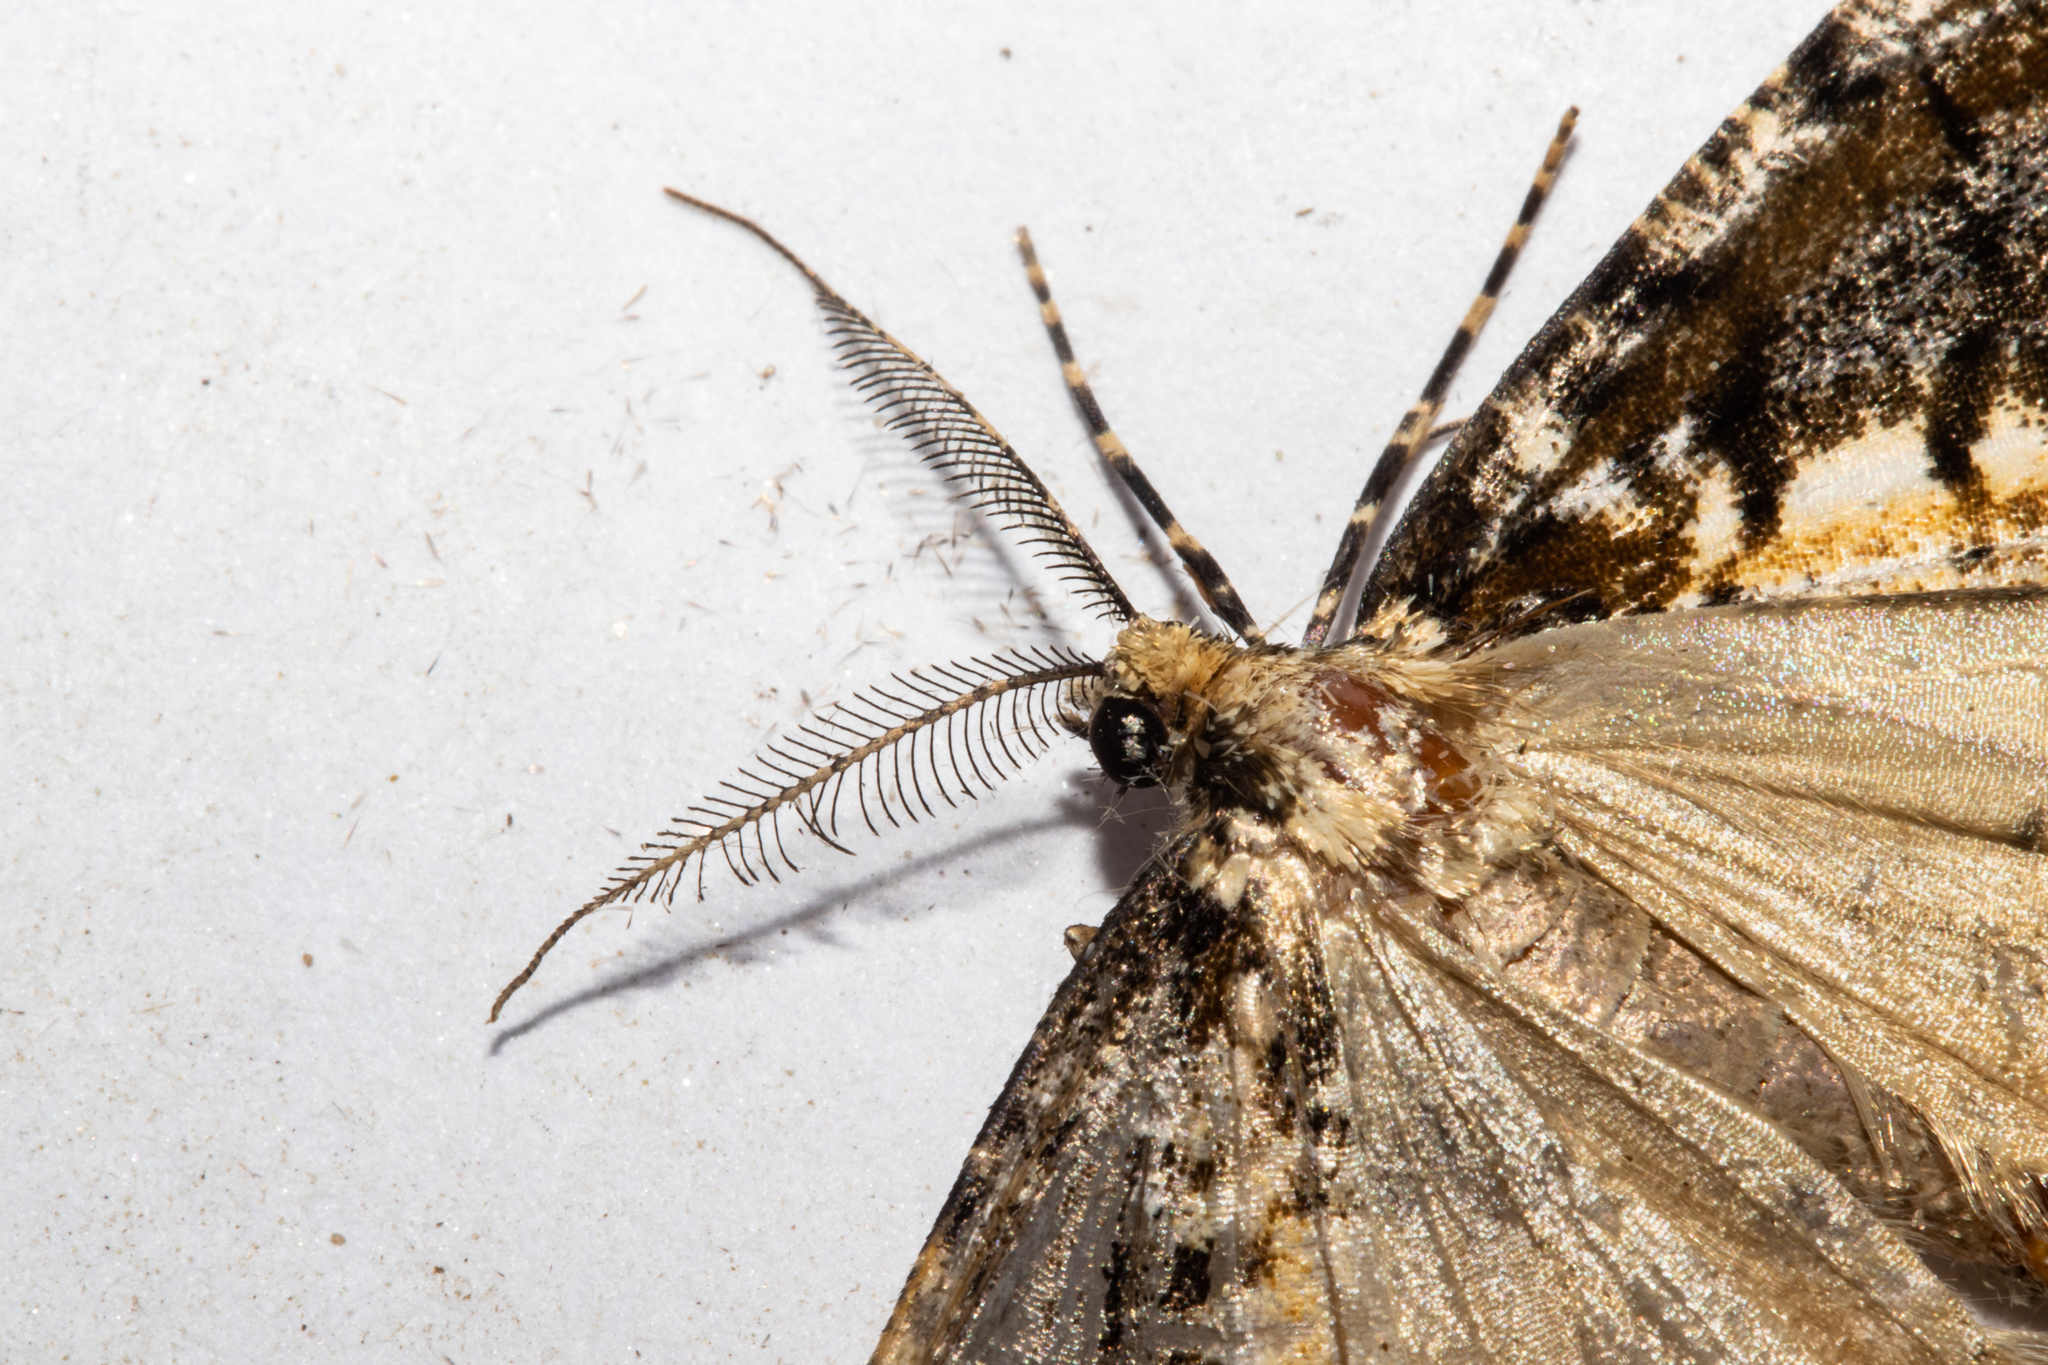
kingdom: Animalia
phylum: Arthropoda
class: Insecta
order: Lepidoptera
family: Geometridae
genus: Pseudocoremia
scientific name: Pseudocoremia leucelaea
